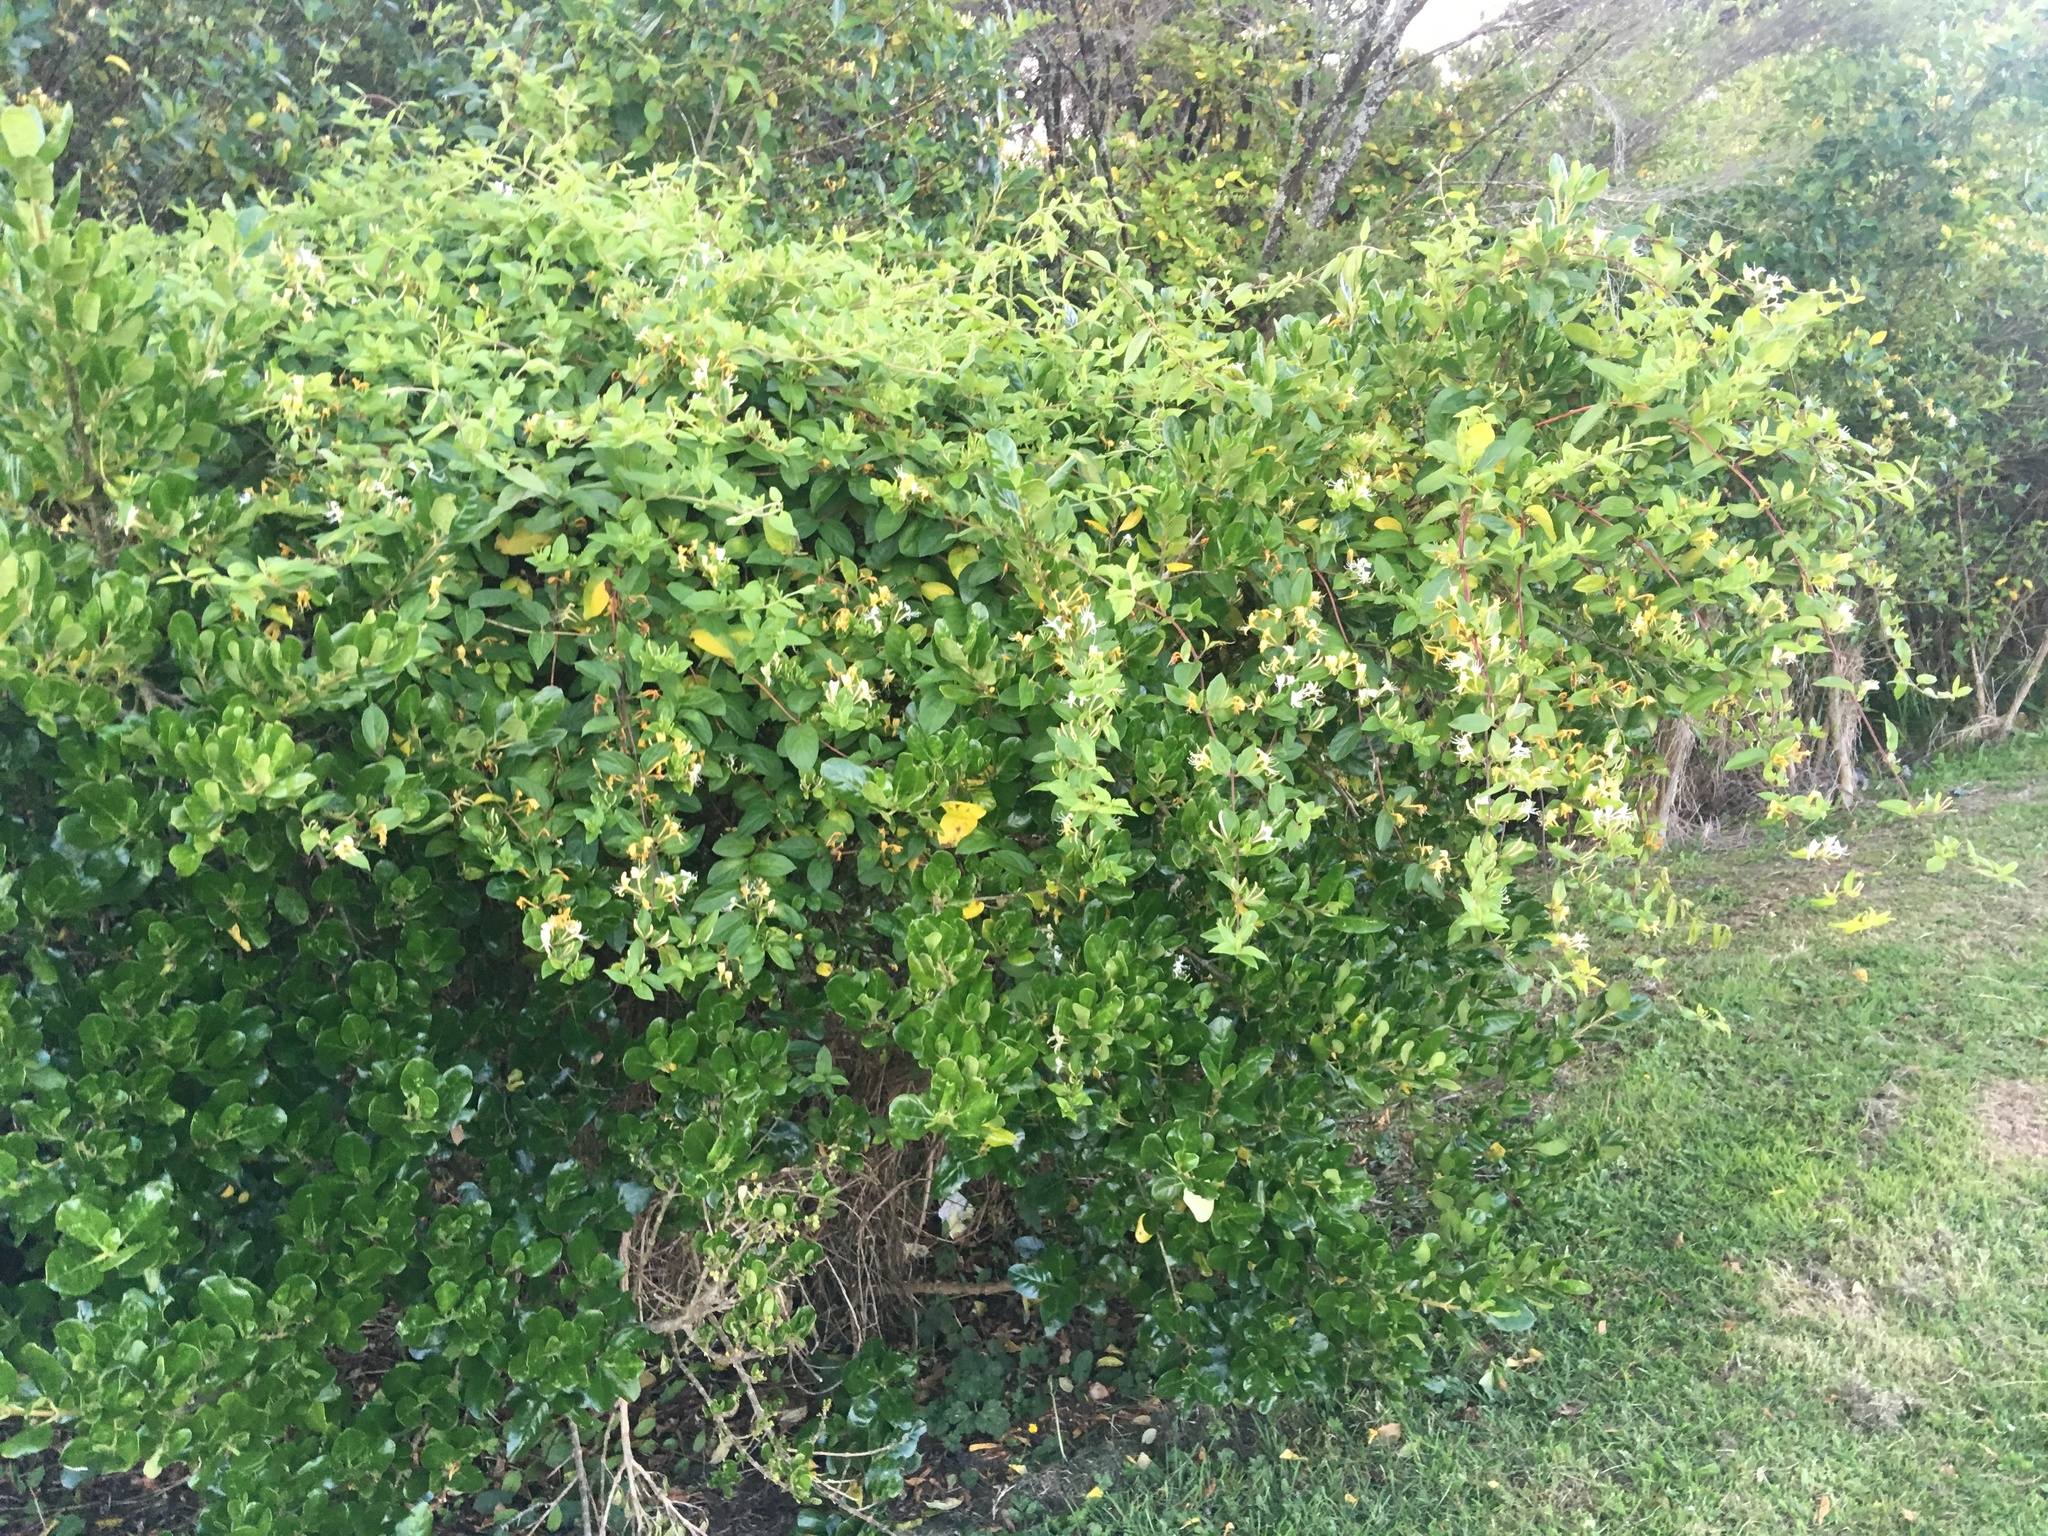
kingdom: Plantae
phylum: Tracheophyta
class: Magnoliopsida
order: Dipsacales
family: Caprifoliaceae
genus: Lonicera
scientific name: Lonicera japonica
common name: Japanese honeysuckle
